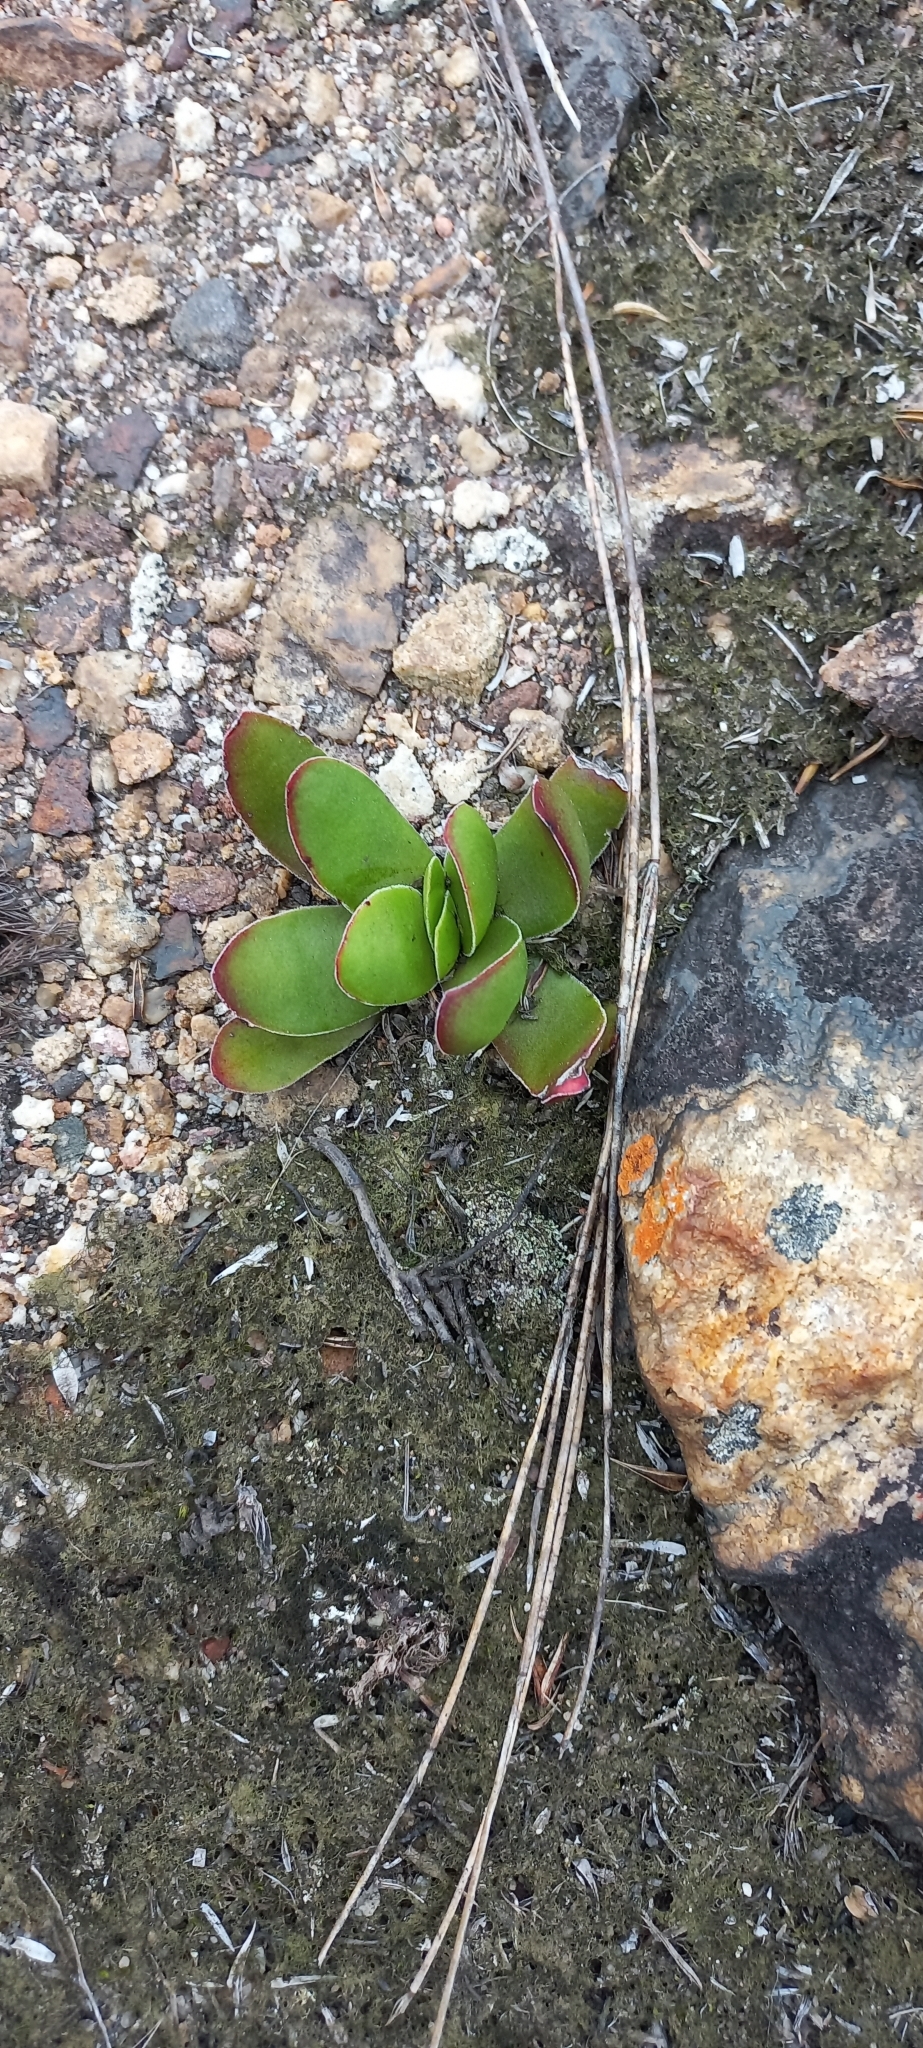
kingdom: Plantae
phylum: Tracheophyta
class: Magnoliopsida
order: Saxifragales
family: Crassulaceae
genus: Crassula
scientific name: Crassula nudicaulis
